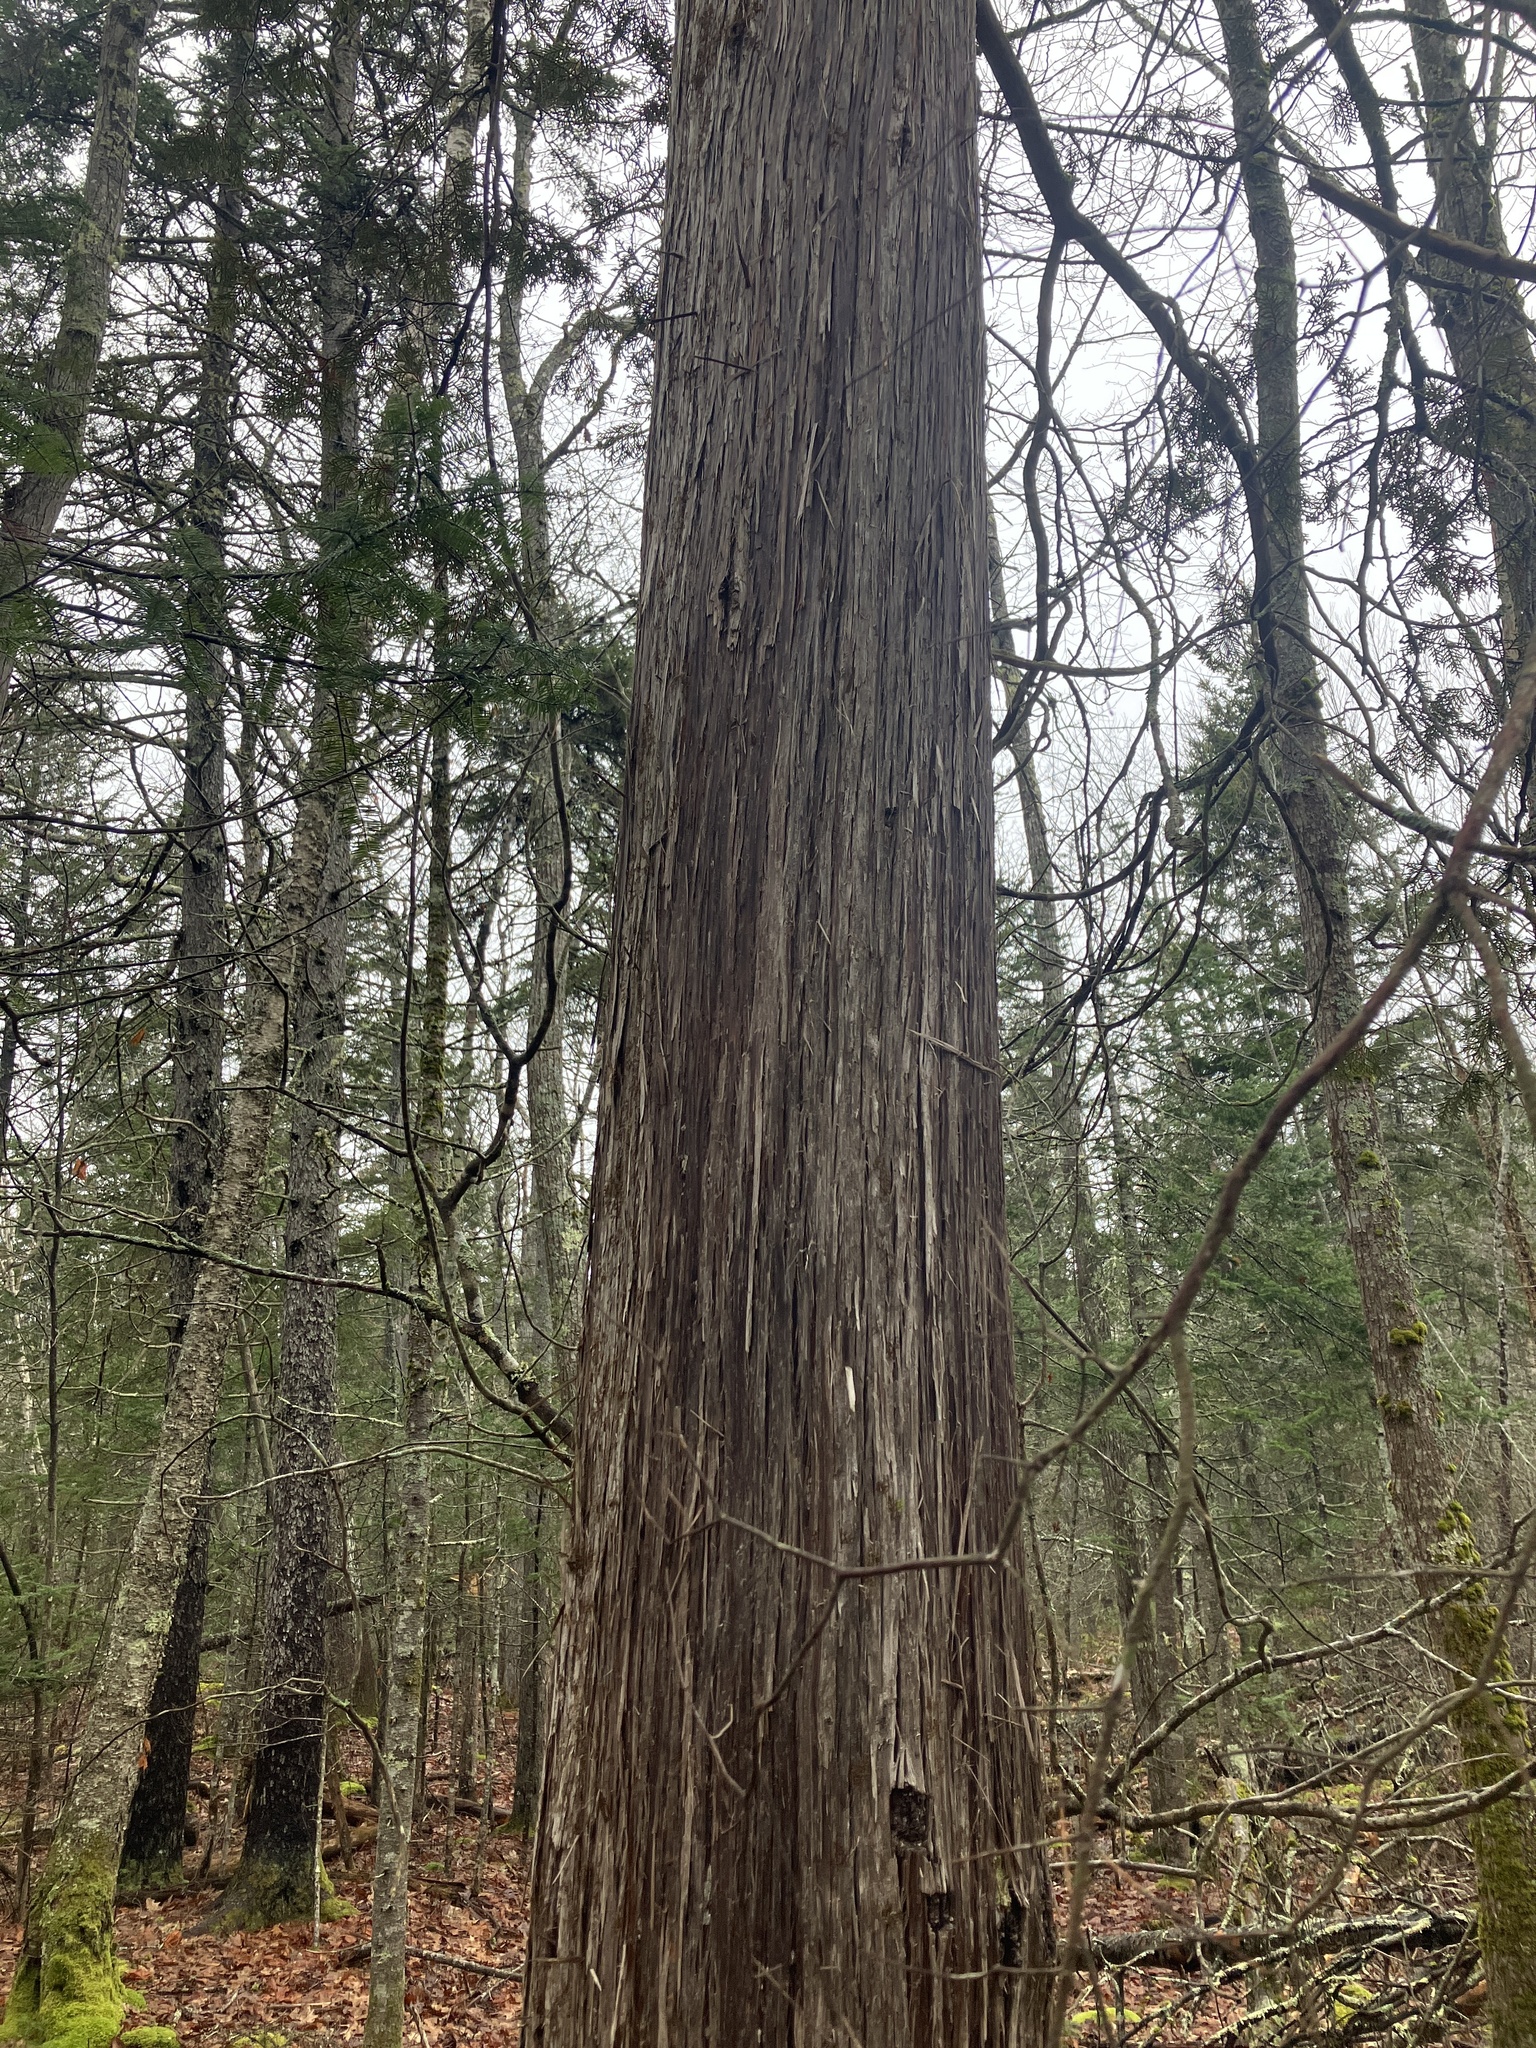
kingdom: Plantae
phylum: Tracheophyta
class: Pinopsida
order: Pinales
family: Cupressaceae
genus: Thuja
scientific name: Thuja occidentalis
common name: Northern white-cedar
